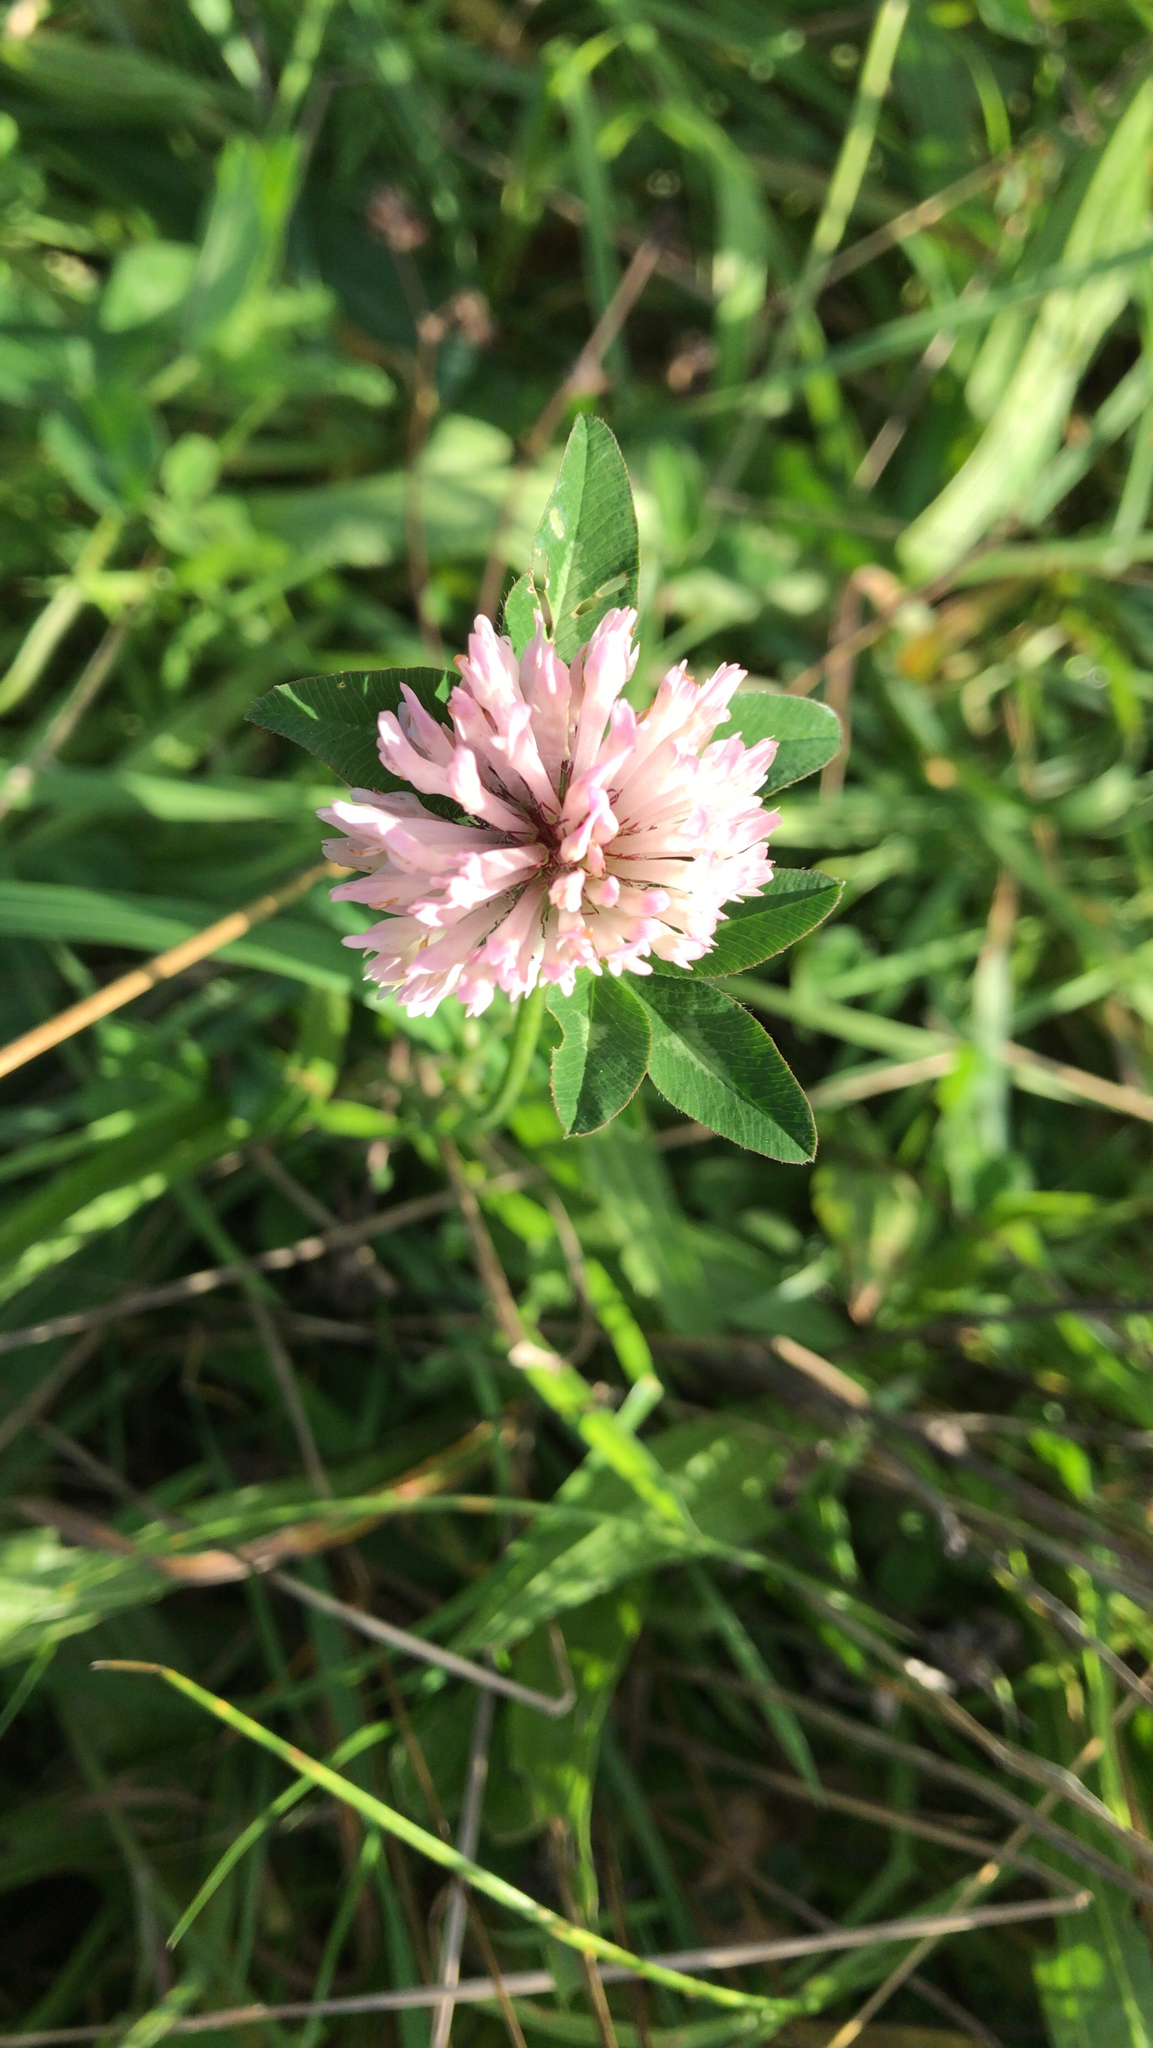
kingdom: Plantae
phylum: Tracheophyta
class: Magnoliopsida
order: Fabales
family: Fabaceae
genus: Trifolium
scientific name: Trifolium pratense
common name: Red clover
